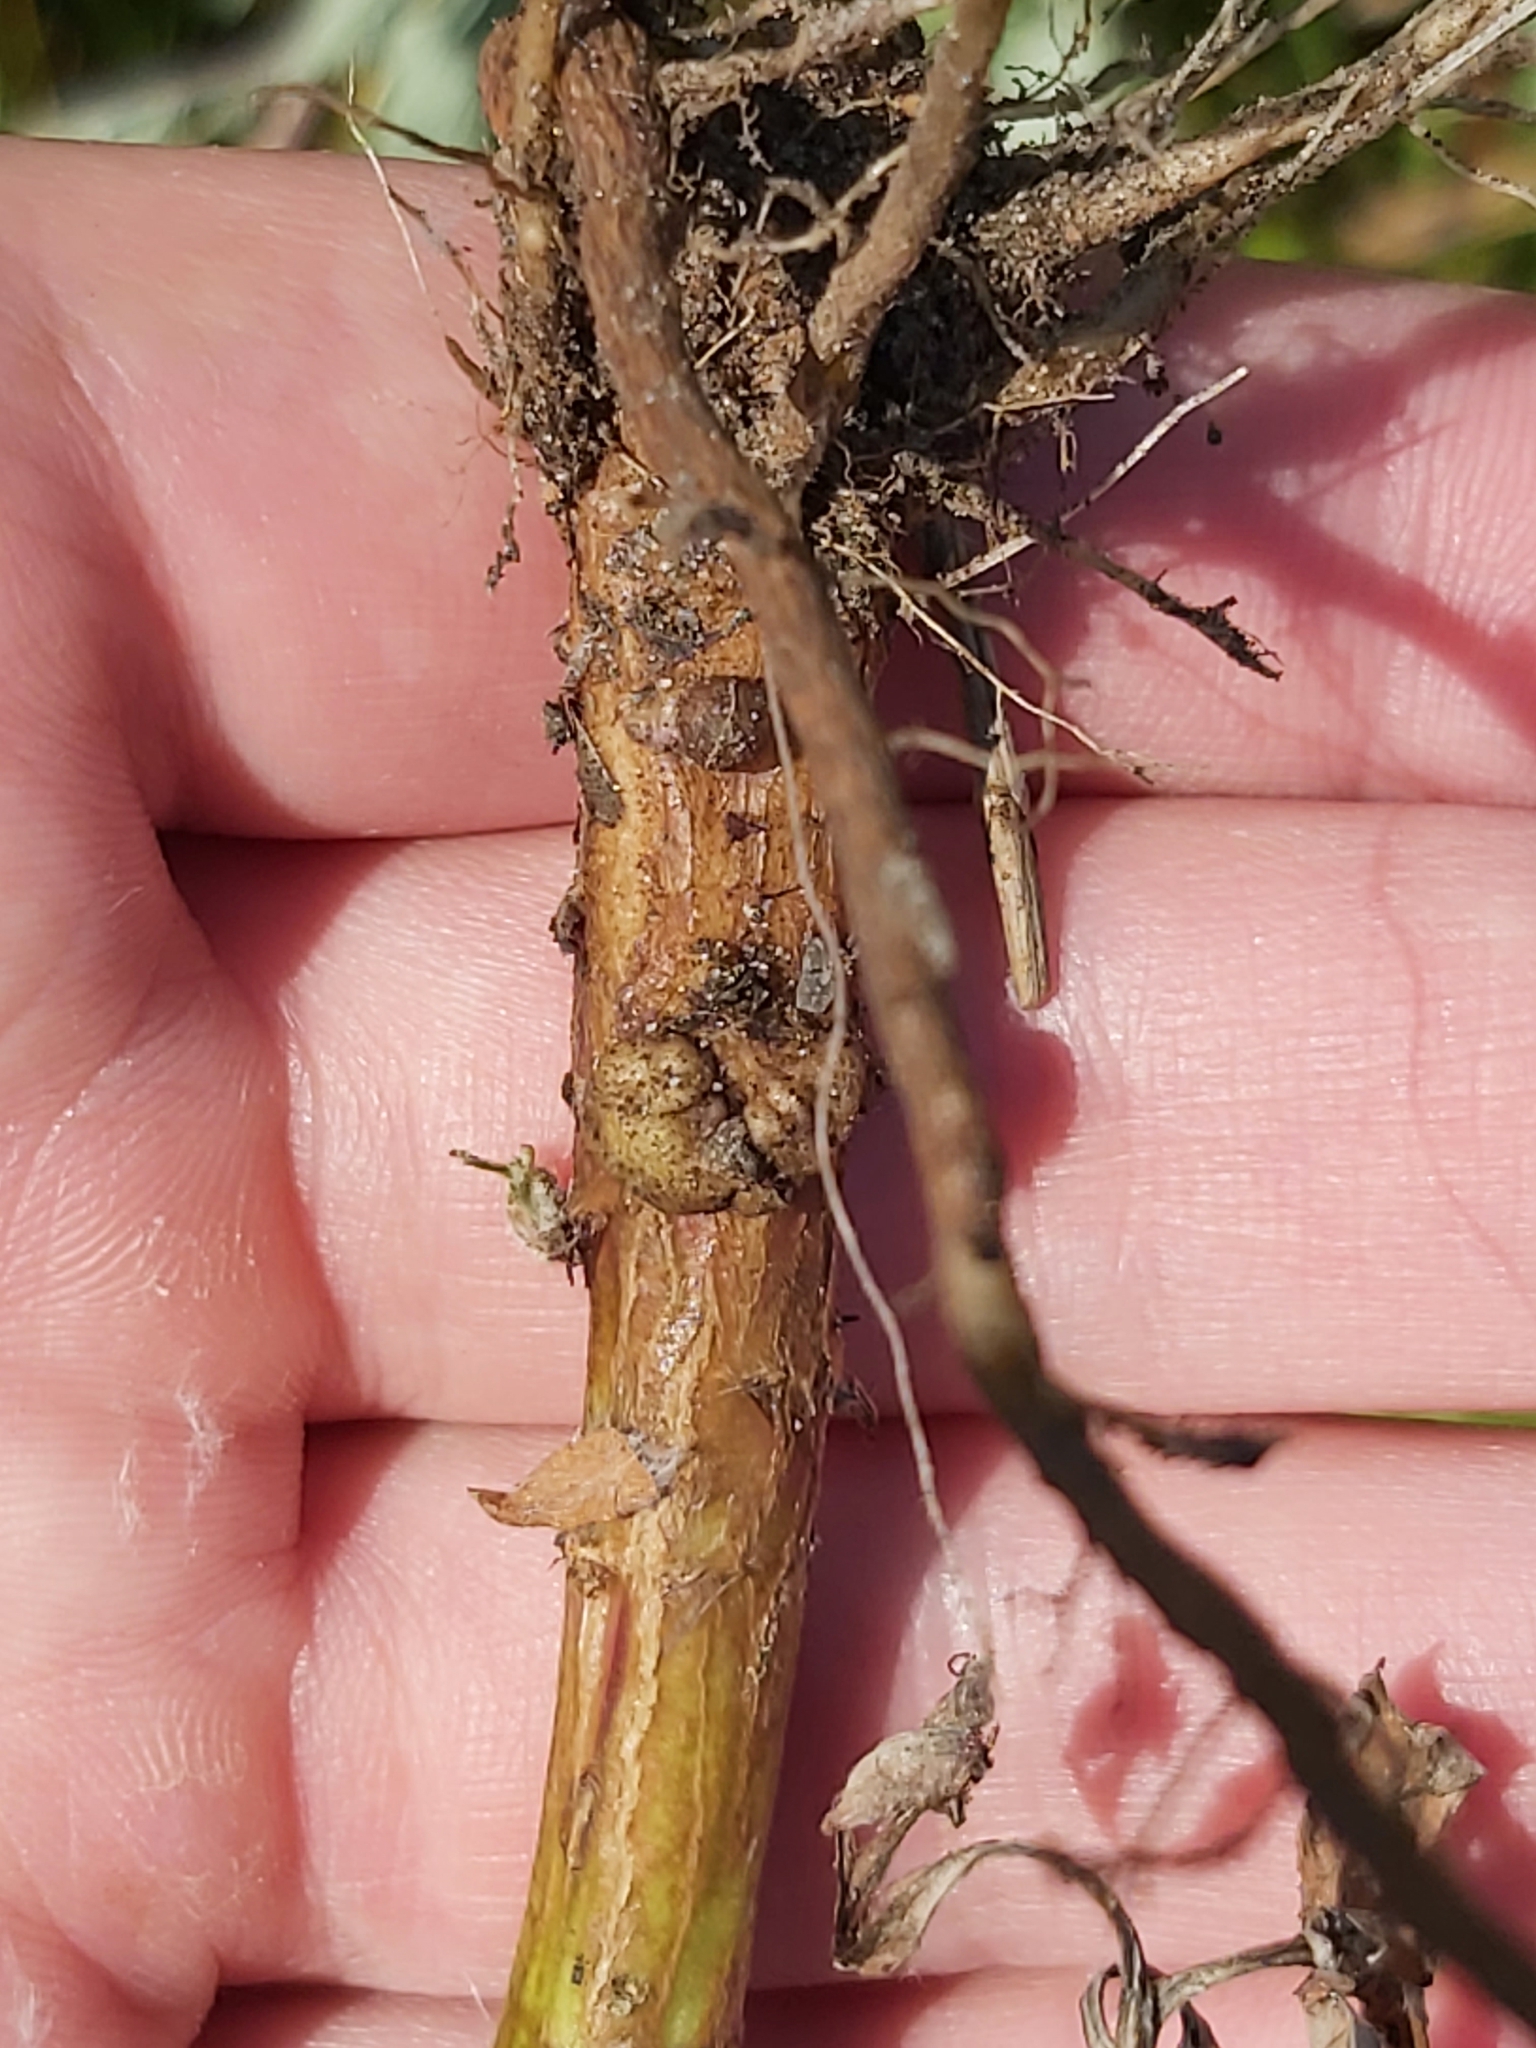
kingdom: Animalia
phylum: Arthropoda
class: Insecta
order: Diptera
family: Cecidomyiidae
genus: Rhopalomyia
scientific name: Rhopalomyia baccarum
